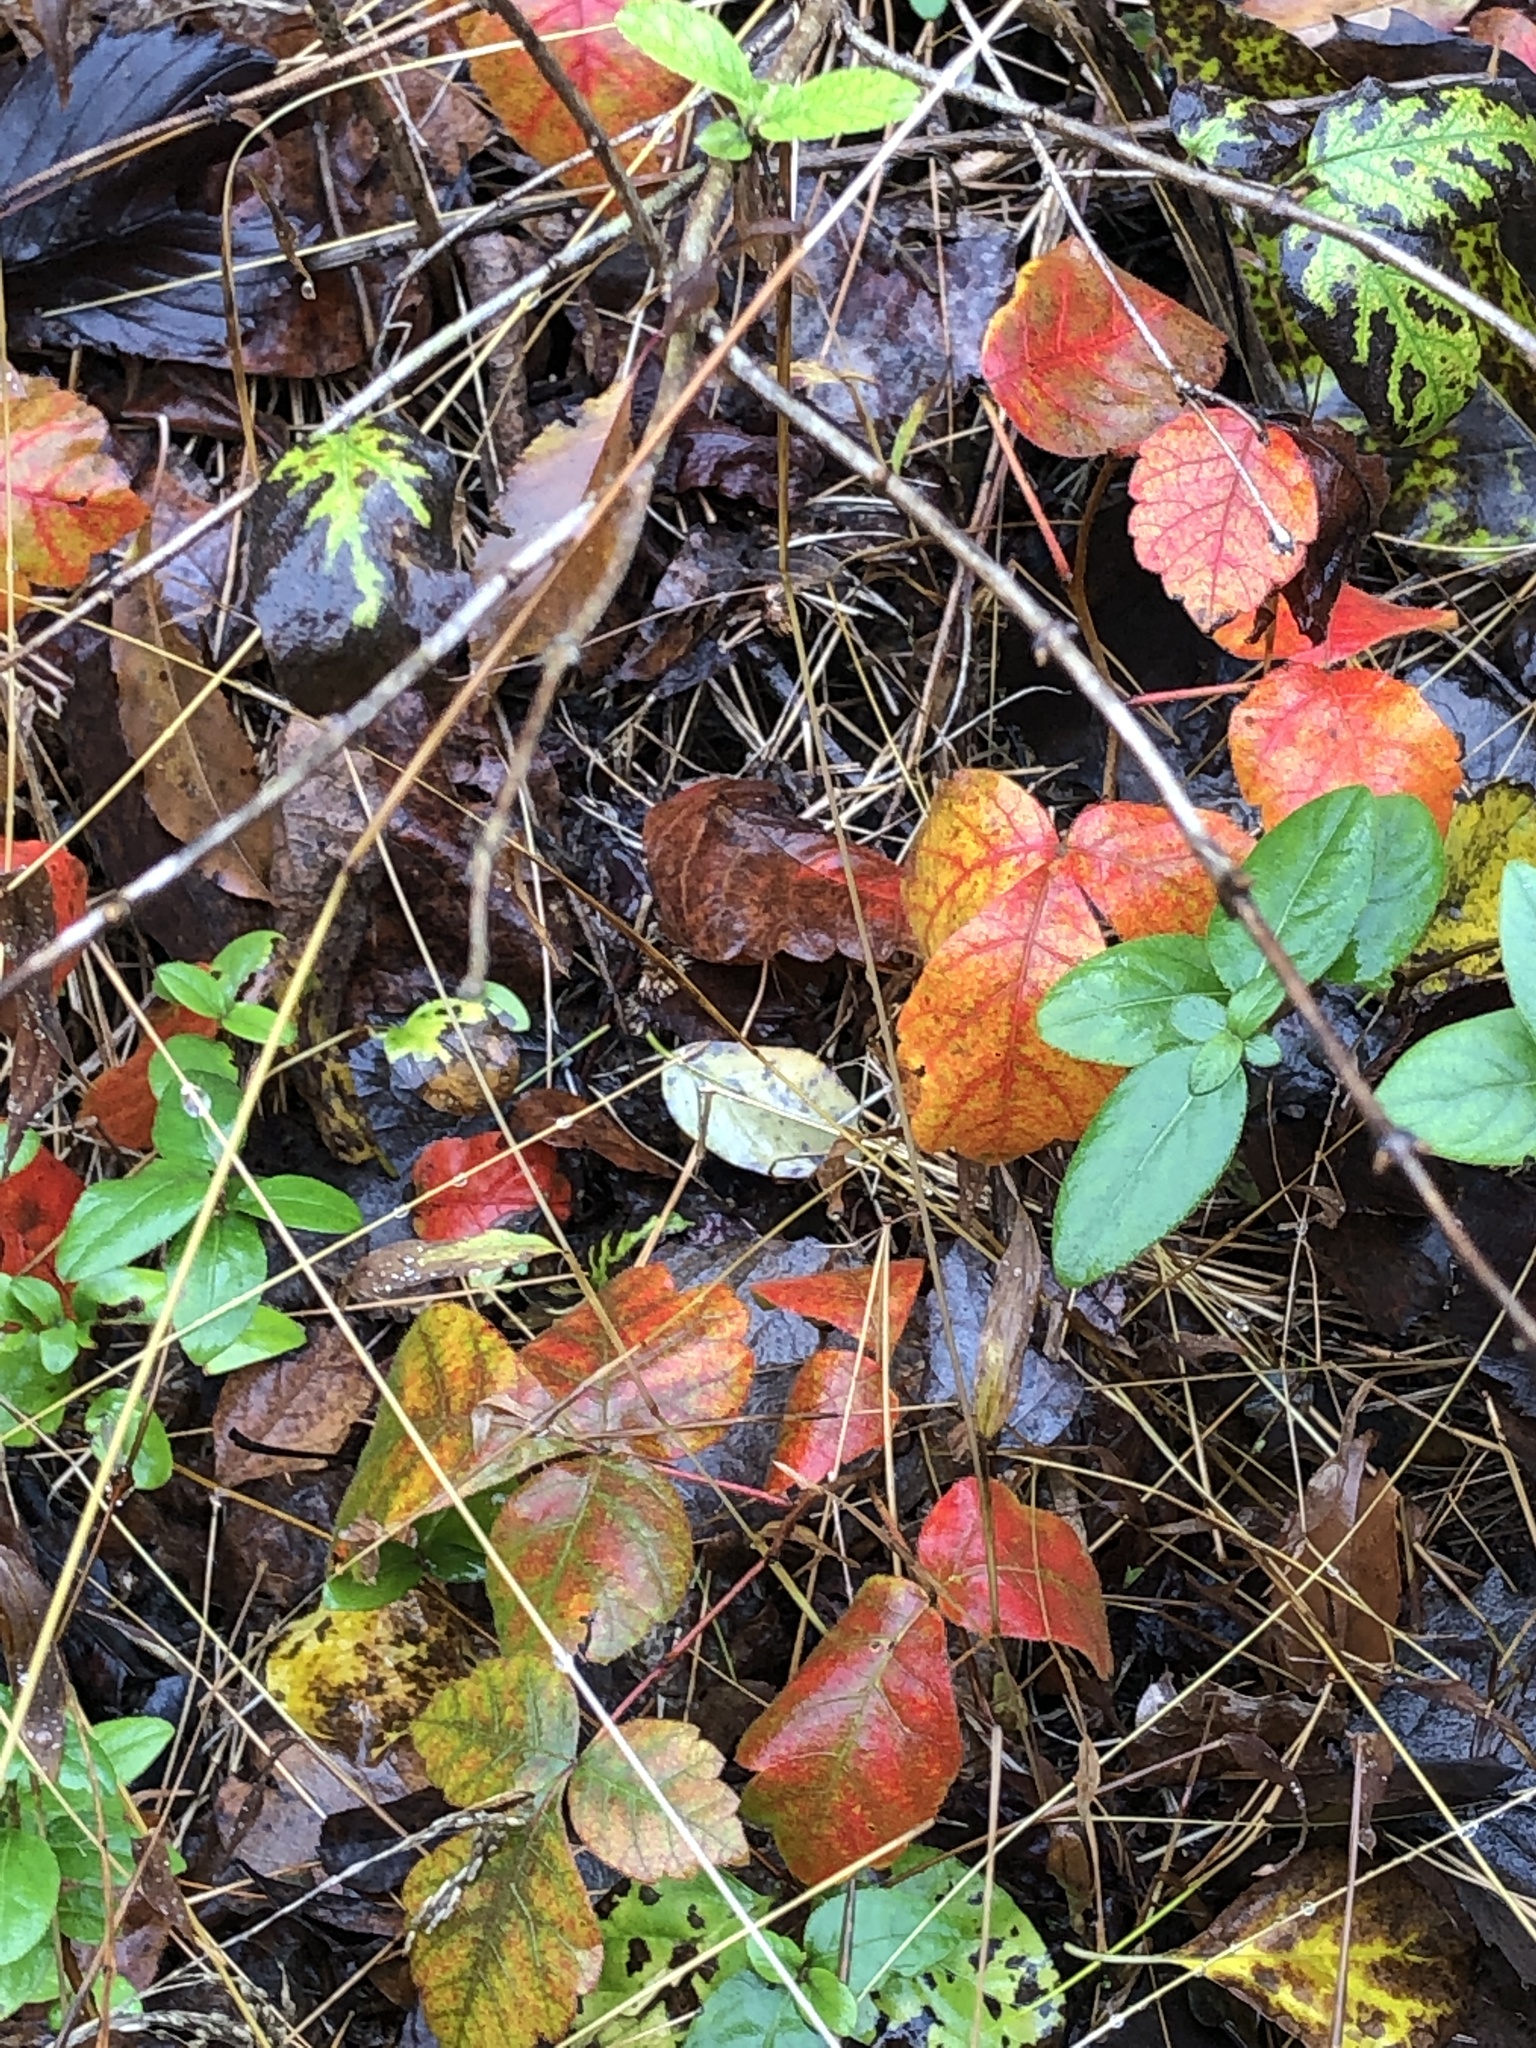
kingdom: Plantae
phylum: Tracheophyta
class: Magnoliopsida
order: Sapindales
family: Anacardiaceae
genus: Toxicodendron
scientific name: Toxicodendron radicans
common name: Poison ivy
